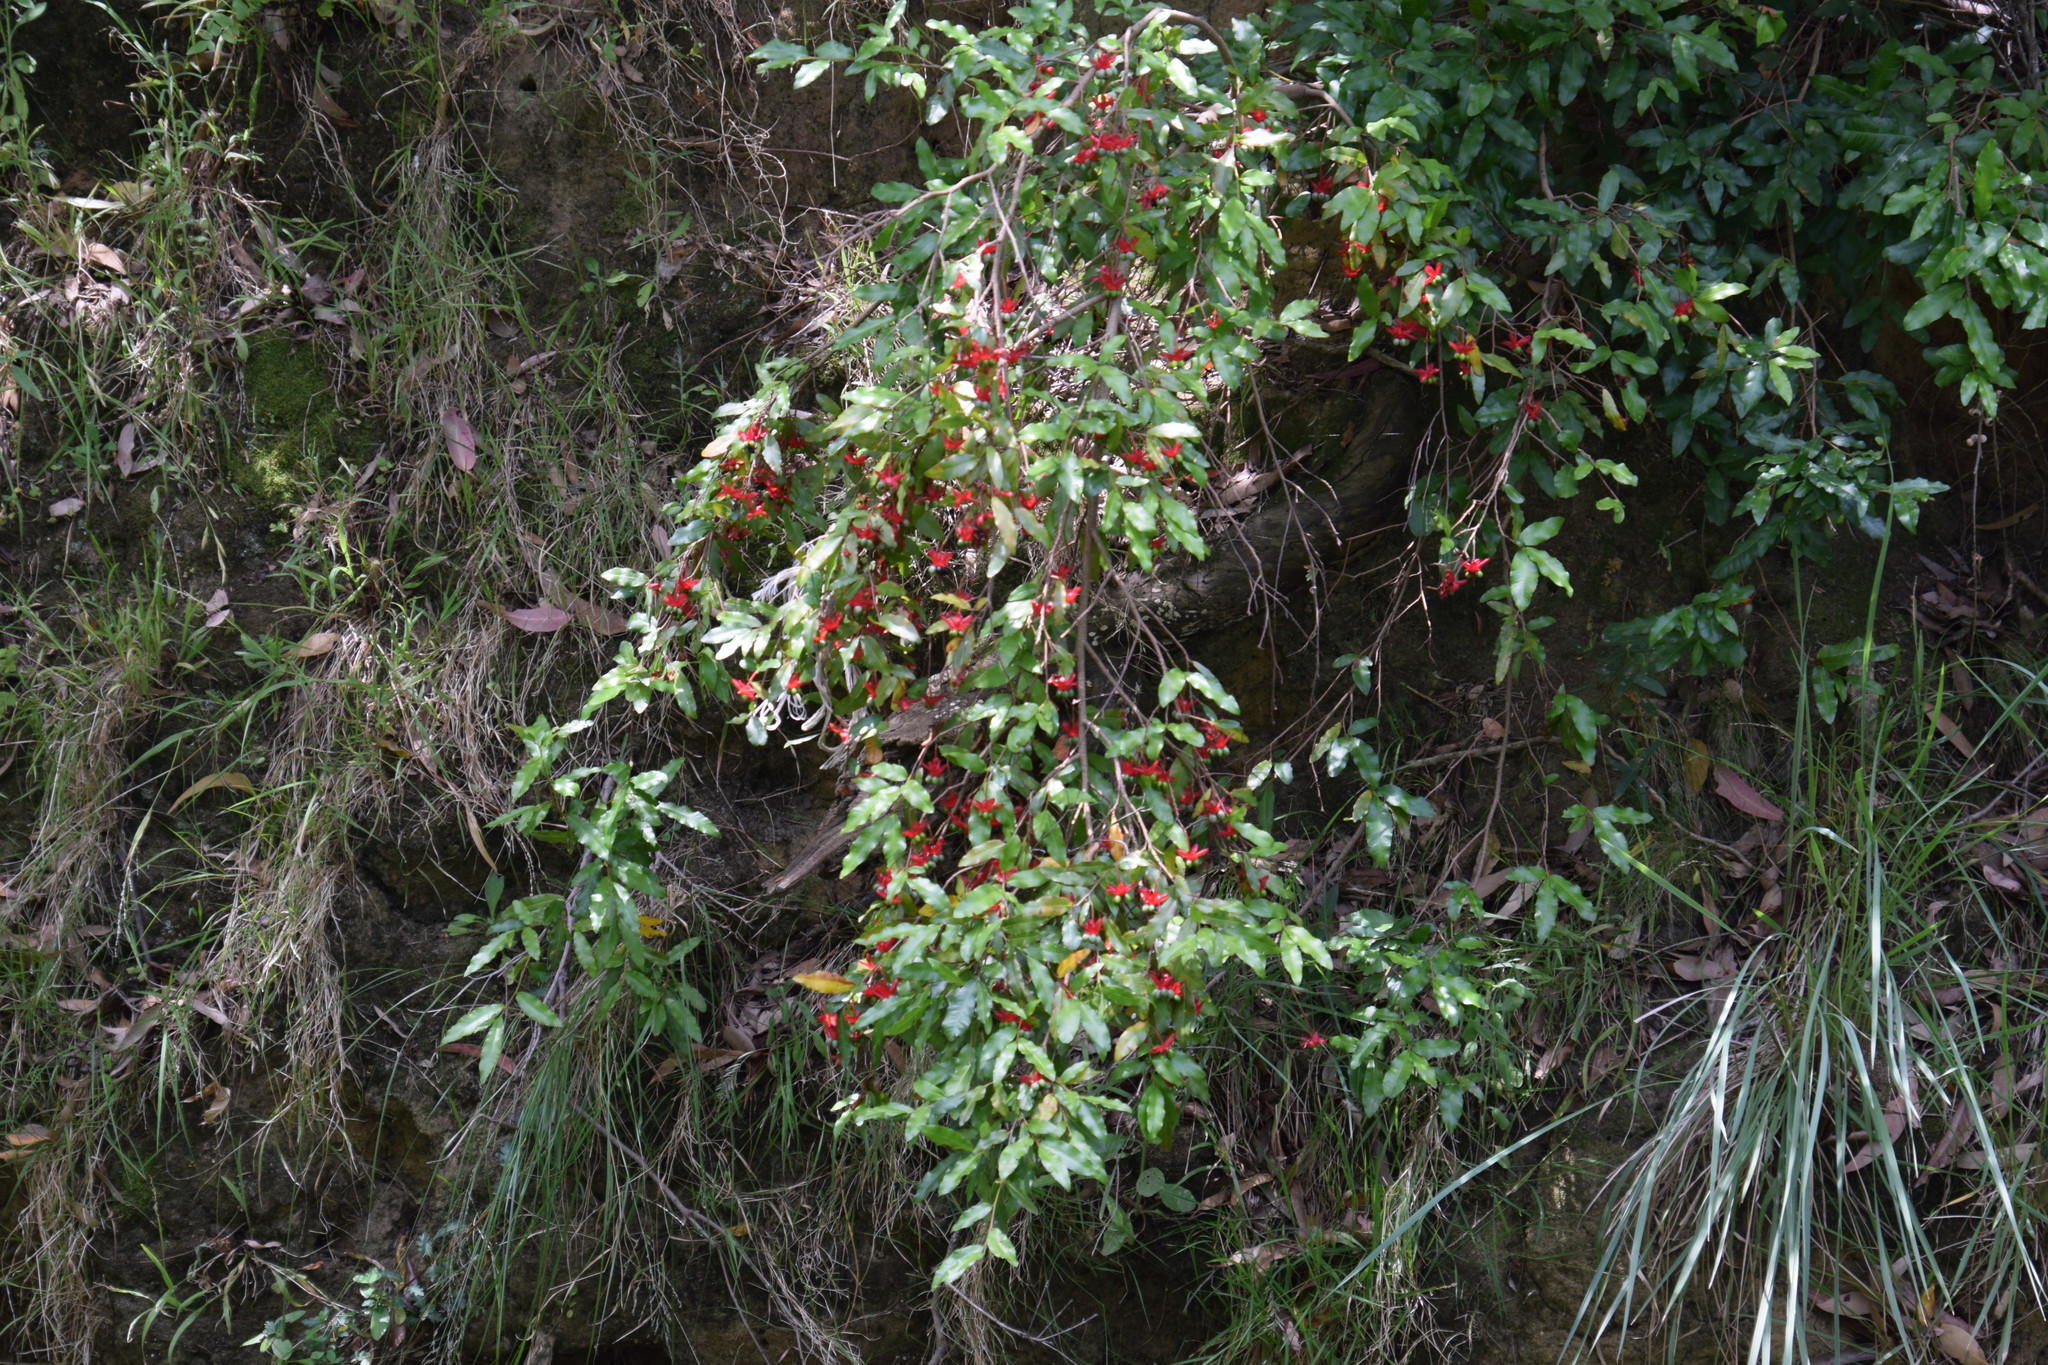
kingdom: Plantae
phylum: Tracheophyta
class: Magnoliopsida
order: Malpighiales
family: Ochnaceae
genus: Ochna
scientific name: Ochna serrulata
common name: Mickey mouse plant
